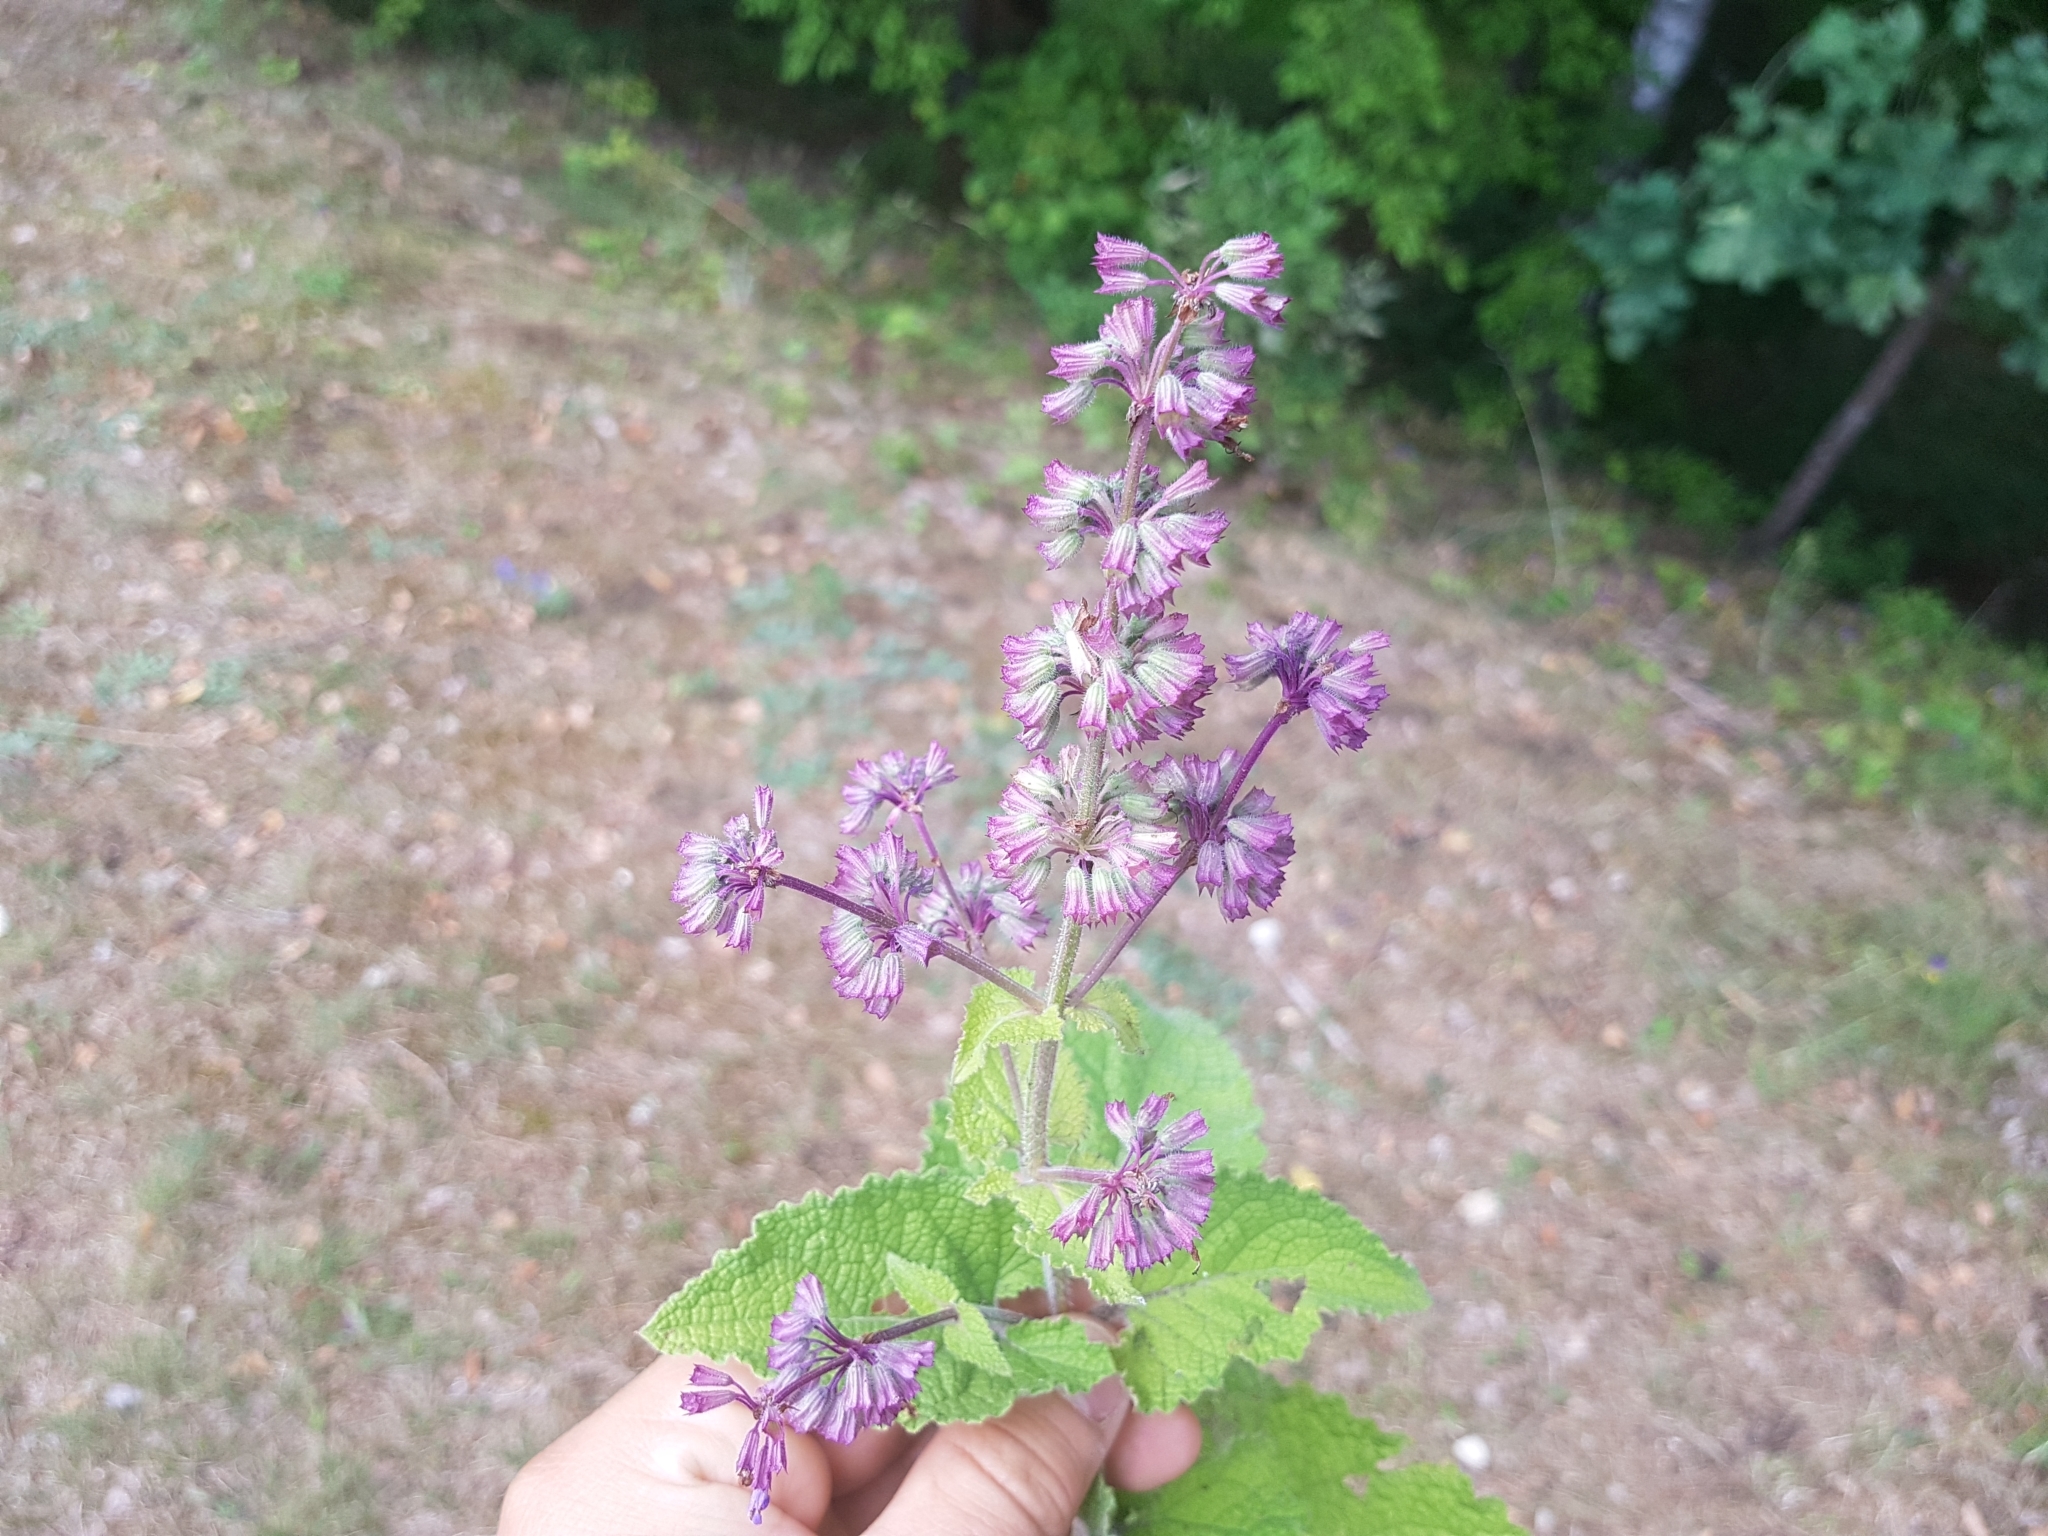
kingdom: Plantae
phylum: Tracheophyta
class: Magnoliopsida
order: Lamiales
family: Lamiaceae
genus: Salvia
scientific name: Salvia verticillata
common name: Whorled clary
